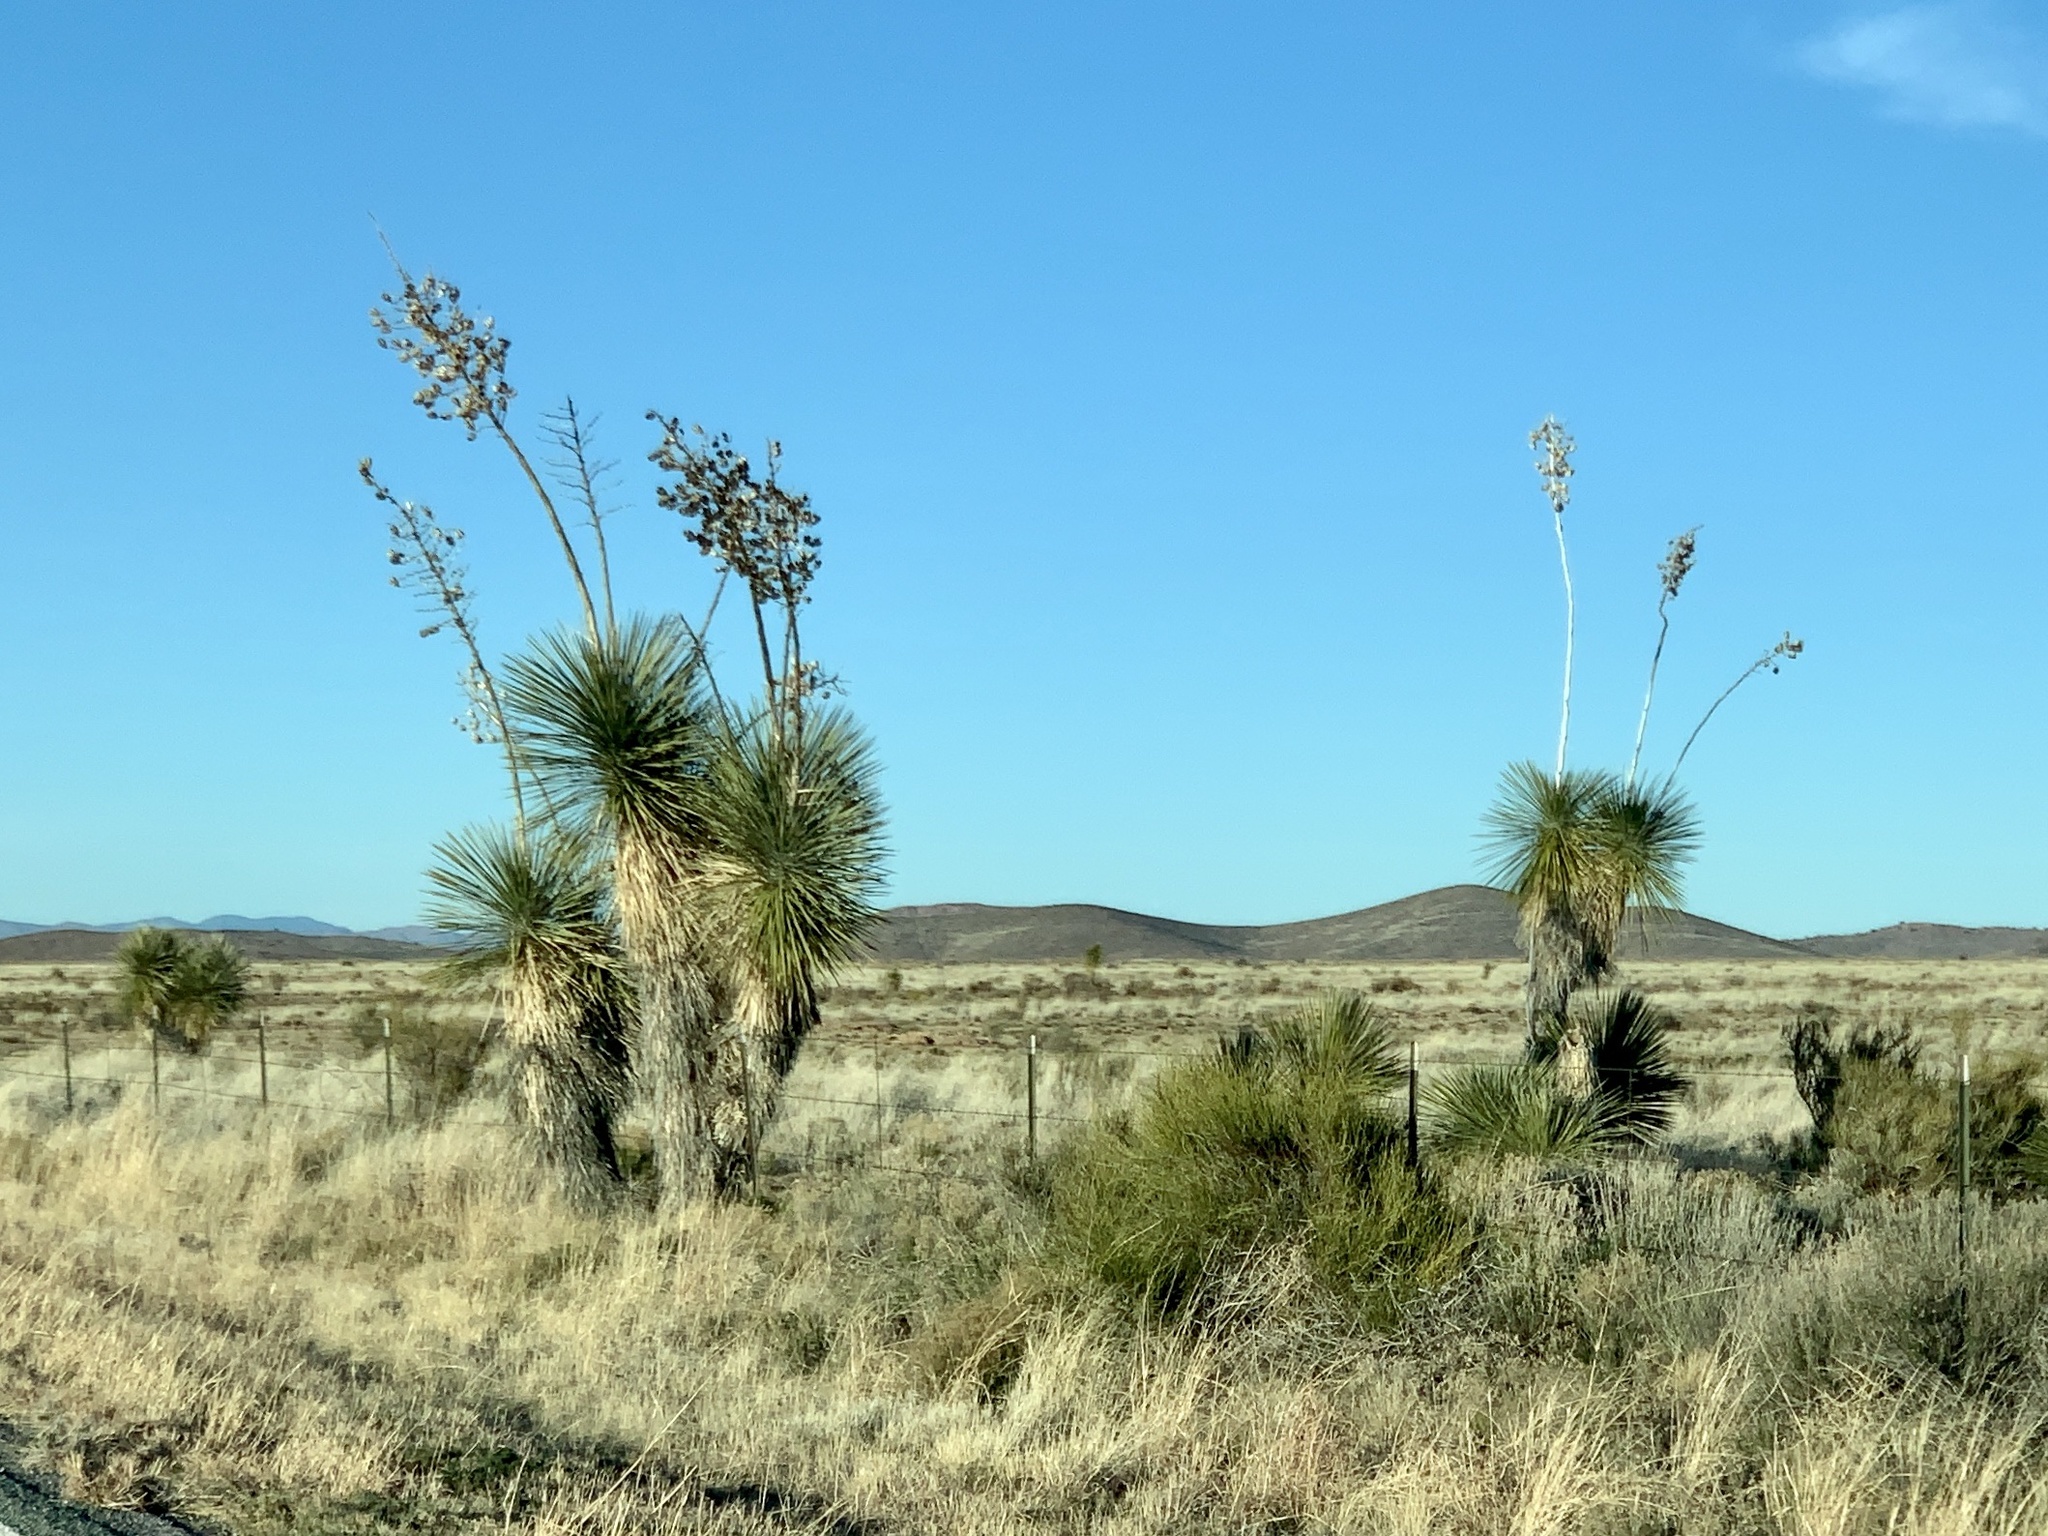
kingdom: Plantae
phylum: Tracheophyta
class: Liliopsida
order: Asparagales
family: Asparagaceae
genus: Yucca
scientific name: Yucca elata
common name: Palmella
